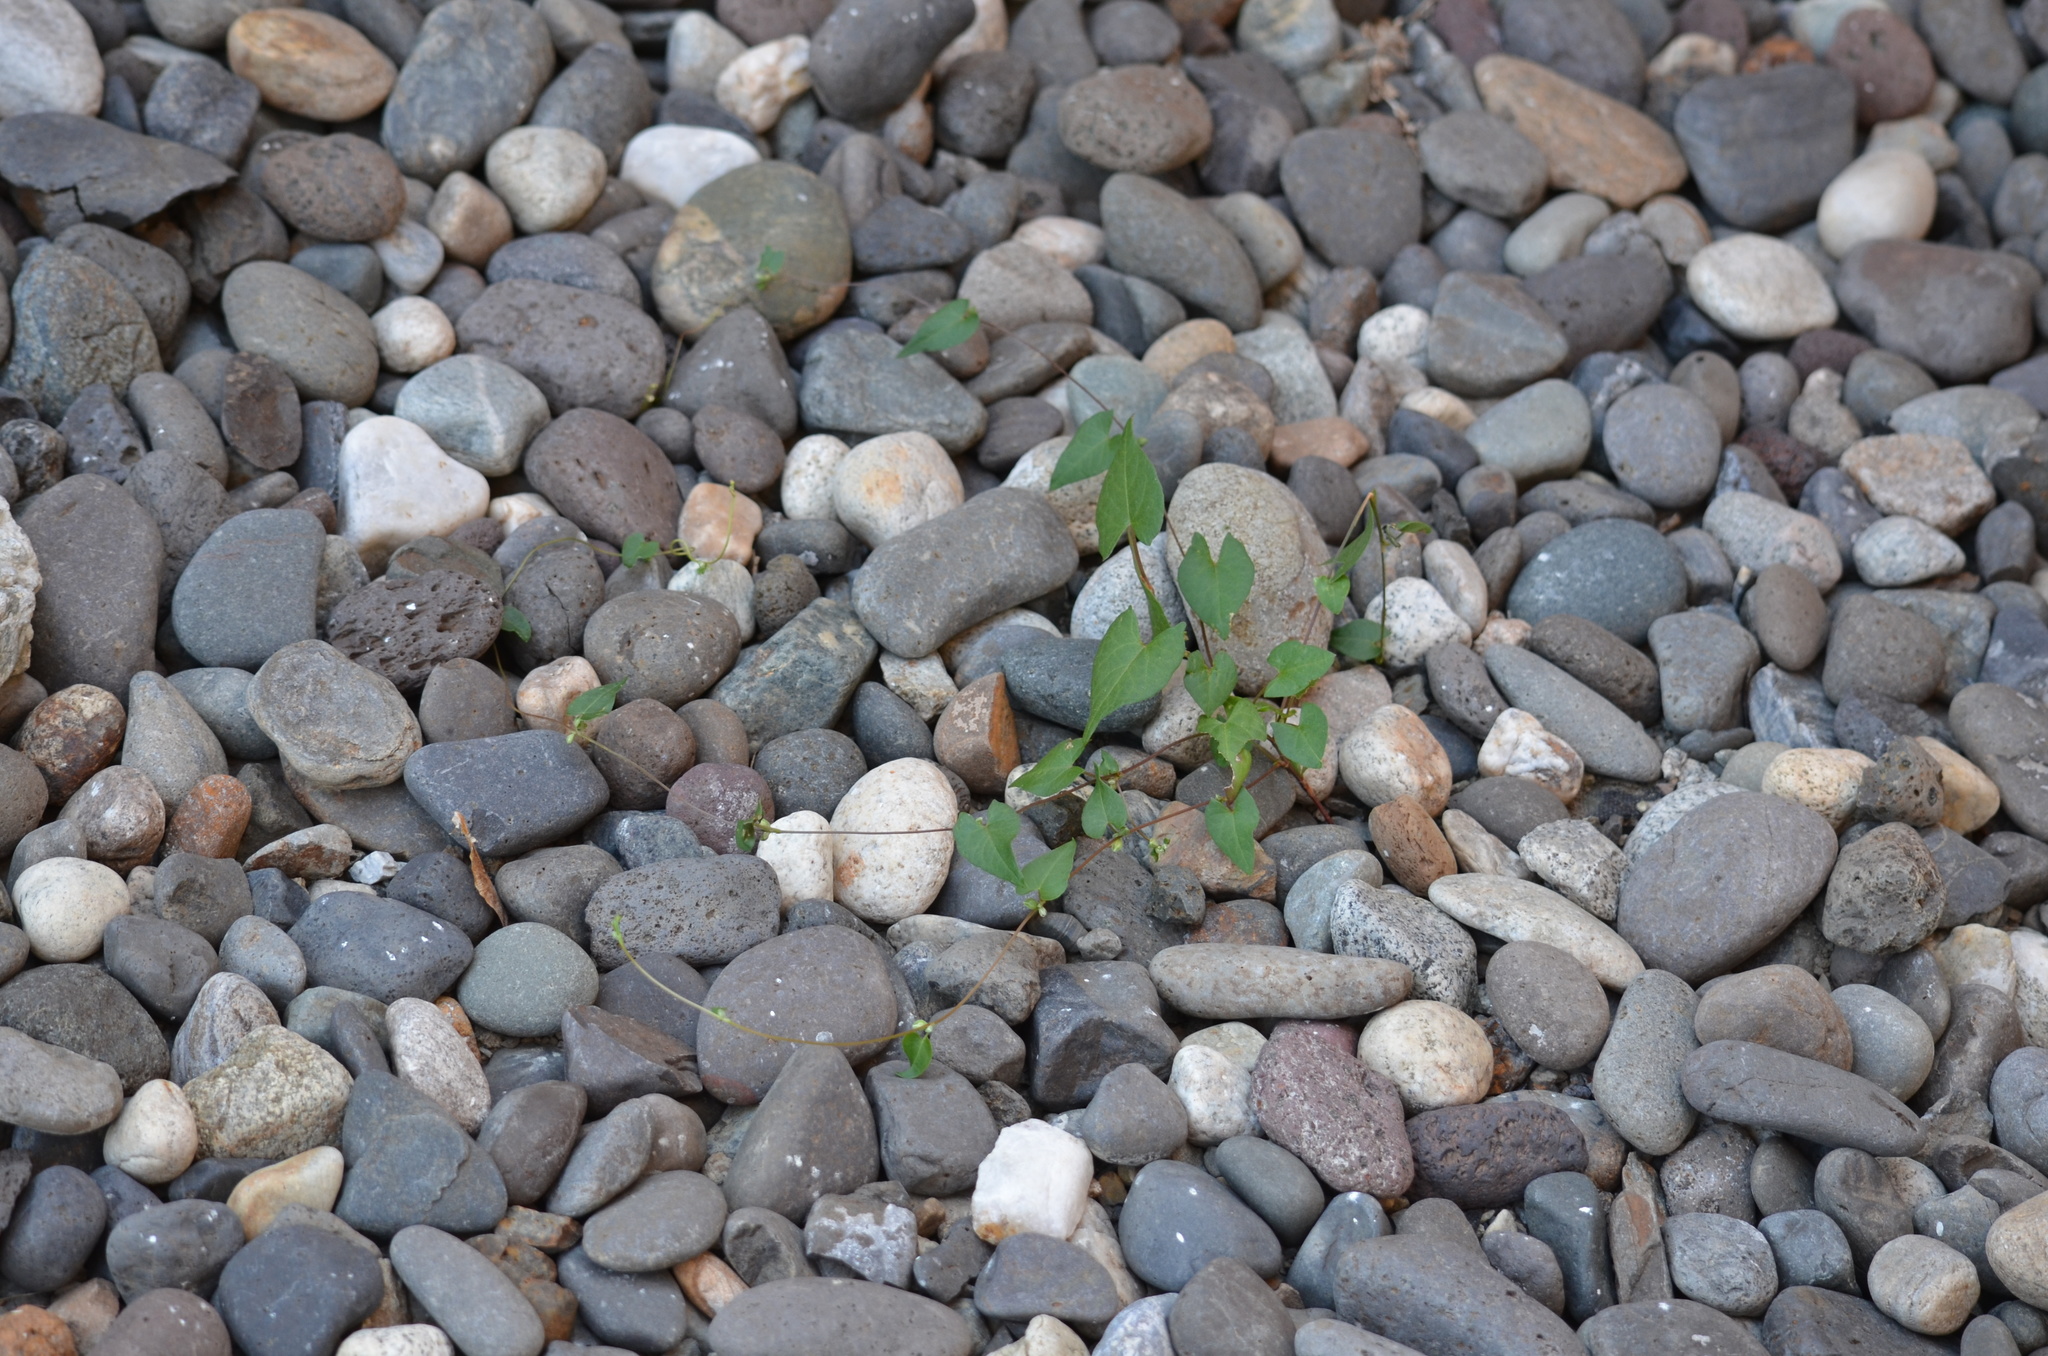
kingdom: Plantae
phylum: Tracheophyta
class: Magnoliopsida
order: Caryophyllales
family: Polygonaceae
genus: Fallopia
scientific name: Fallopia convolvulus
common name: Black bindweed
